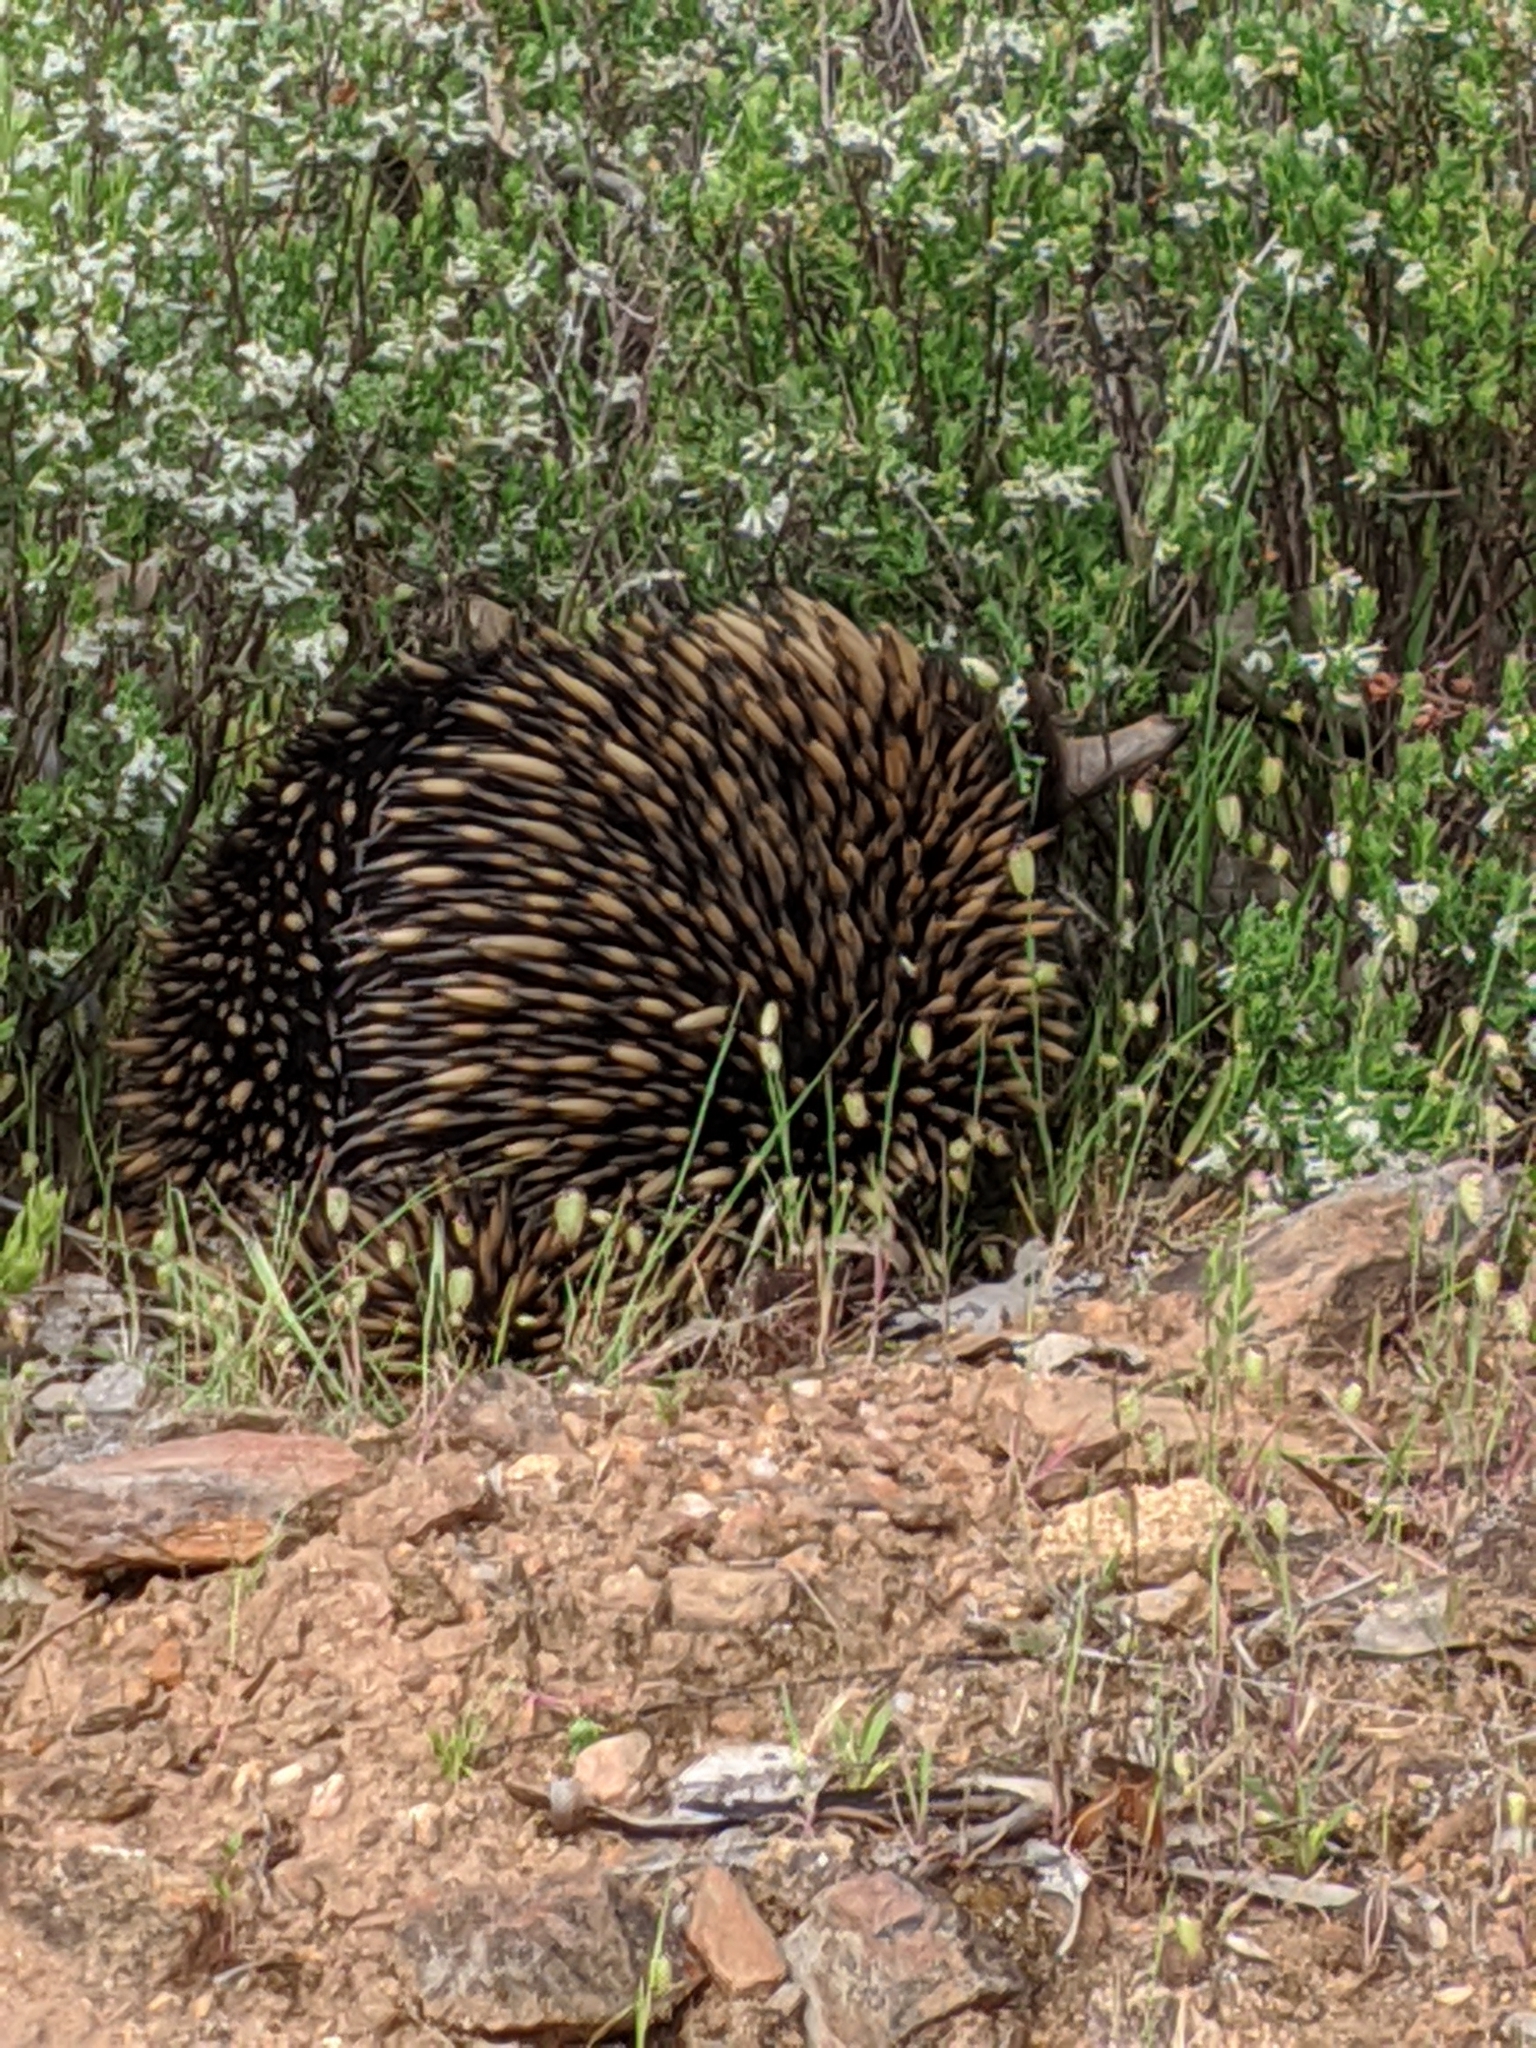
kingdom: Animalia
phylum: Chordata
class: Mammalia
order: Monotremata
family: Tachyglossidae
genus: Tachyglossus
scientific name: Tachyglossus aculeatus
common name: Short-beaked echidna
